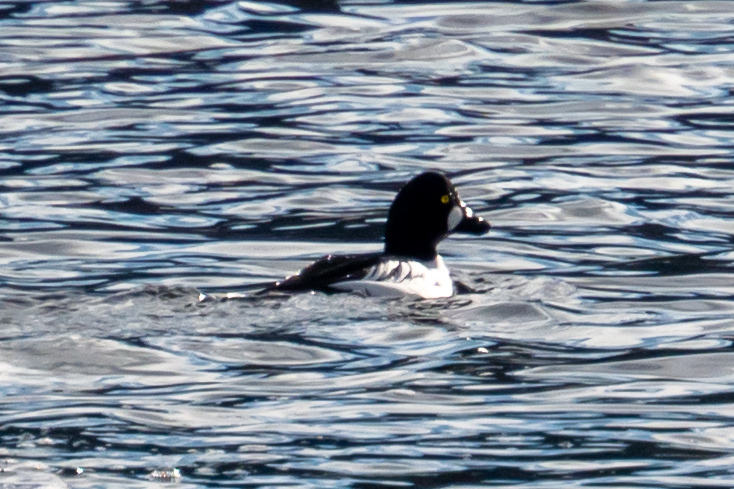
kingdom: Animalia
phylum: Chordata
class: Aves
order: Anseriformes
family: Anatidae
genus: Bucephala
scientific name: Bucephala clangula
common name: Common goldeneye
